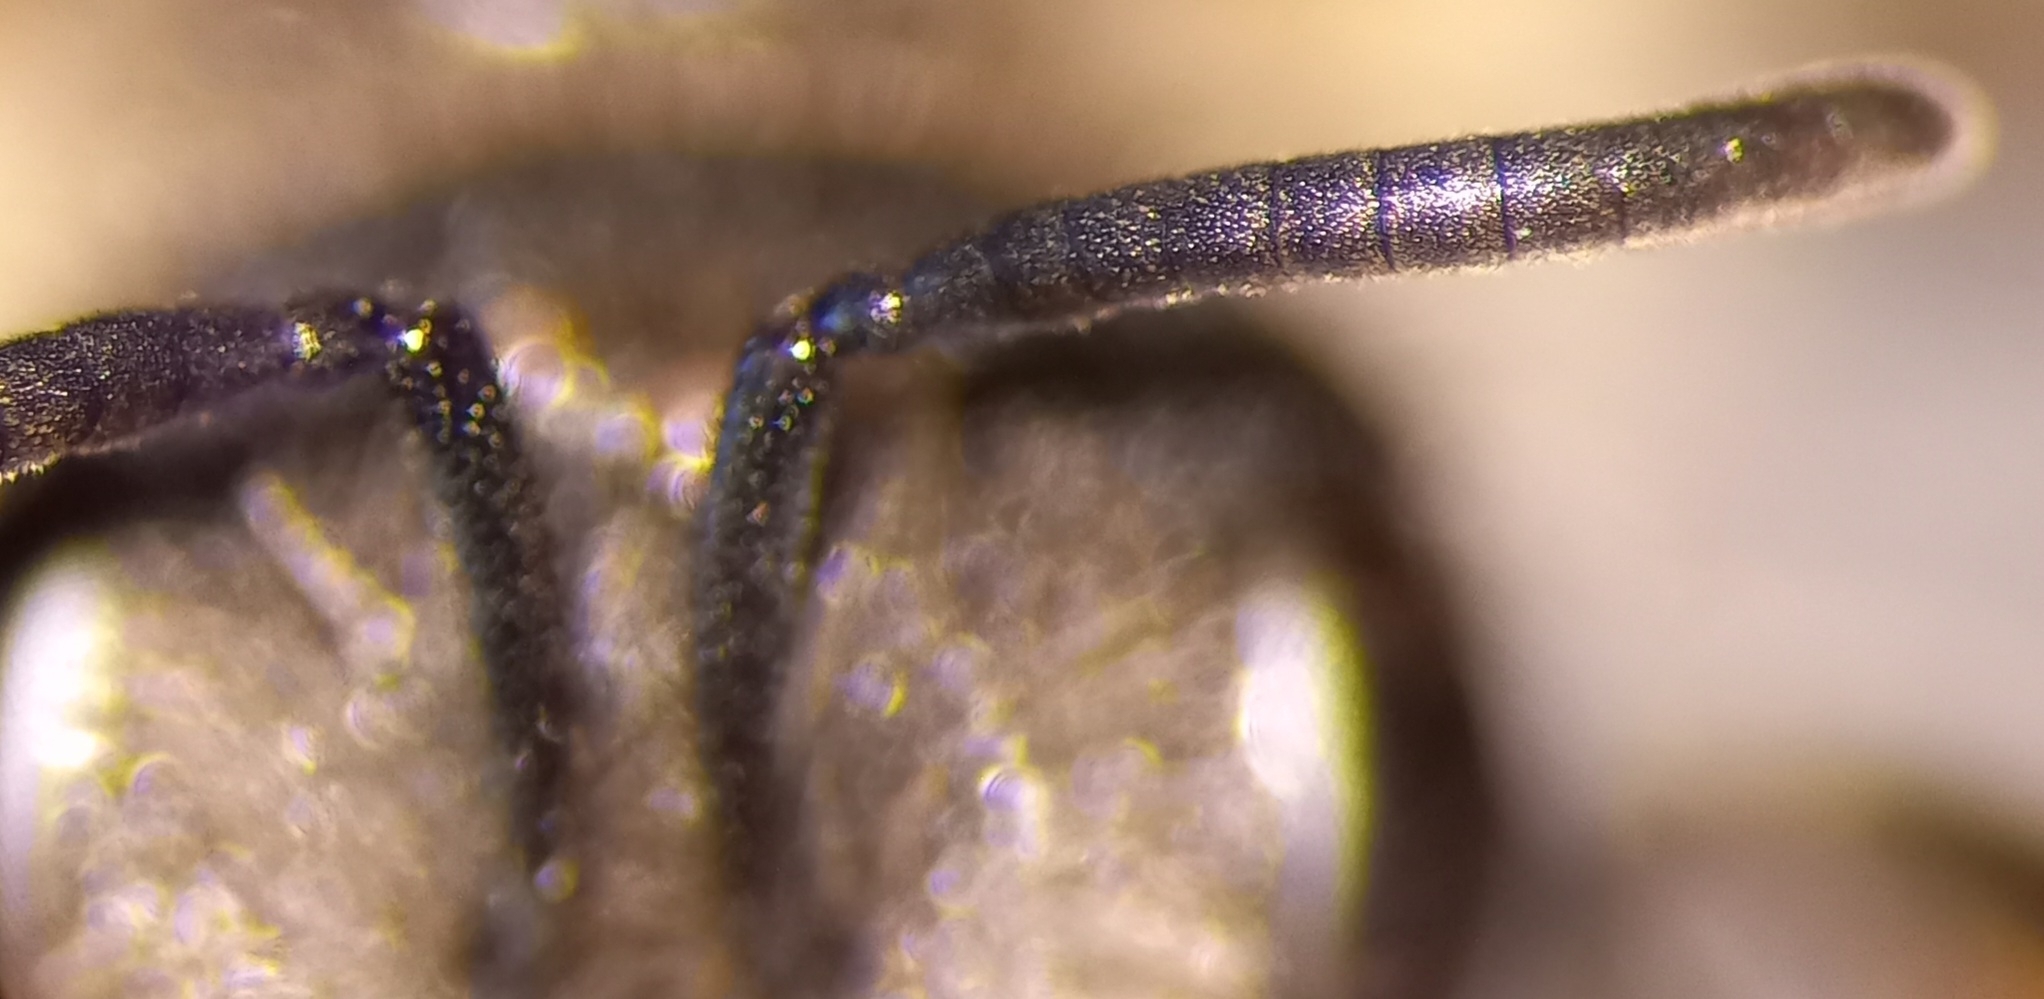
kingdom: Animalia
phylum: Arthropoda
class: Insecta
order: Hymenoptera
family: Halictidae
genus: Halictus
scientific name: Halictus simplex
